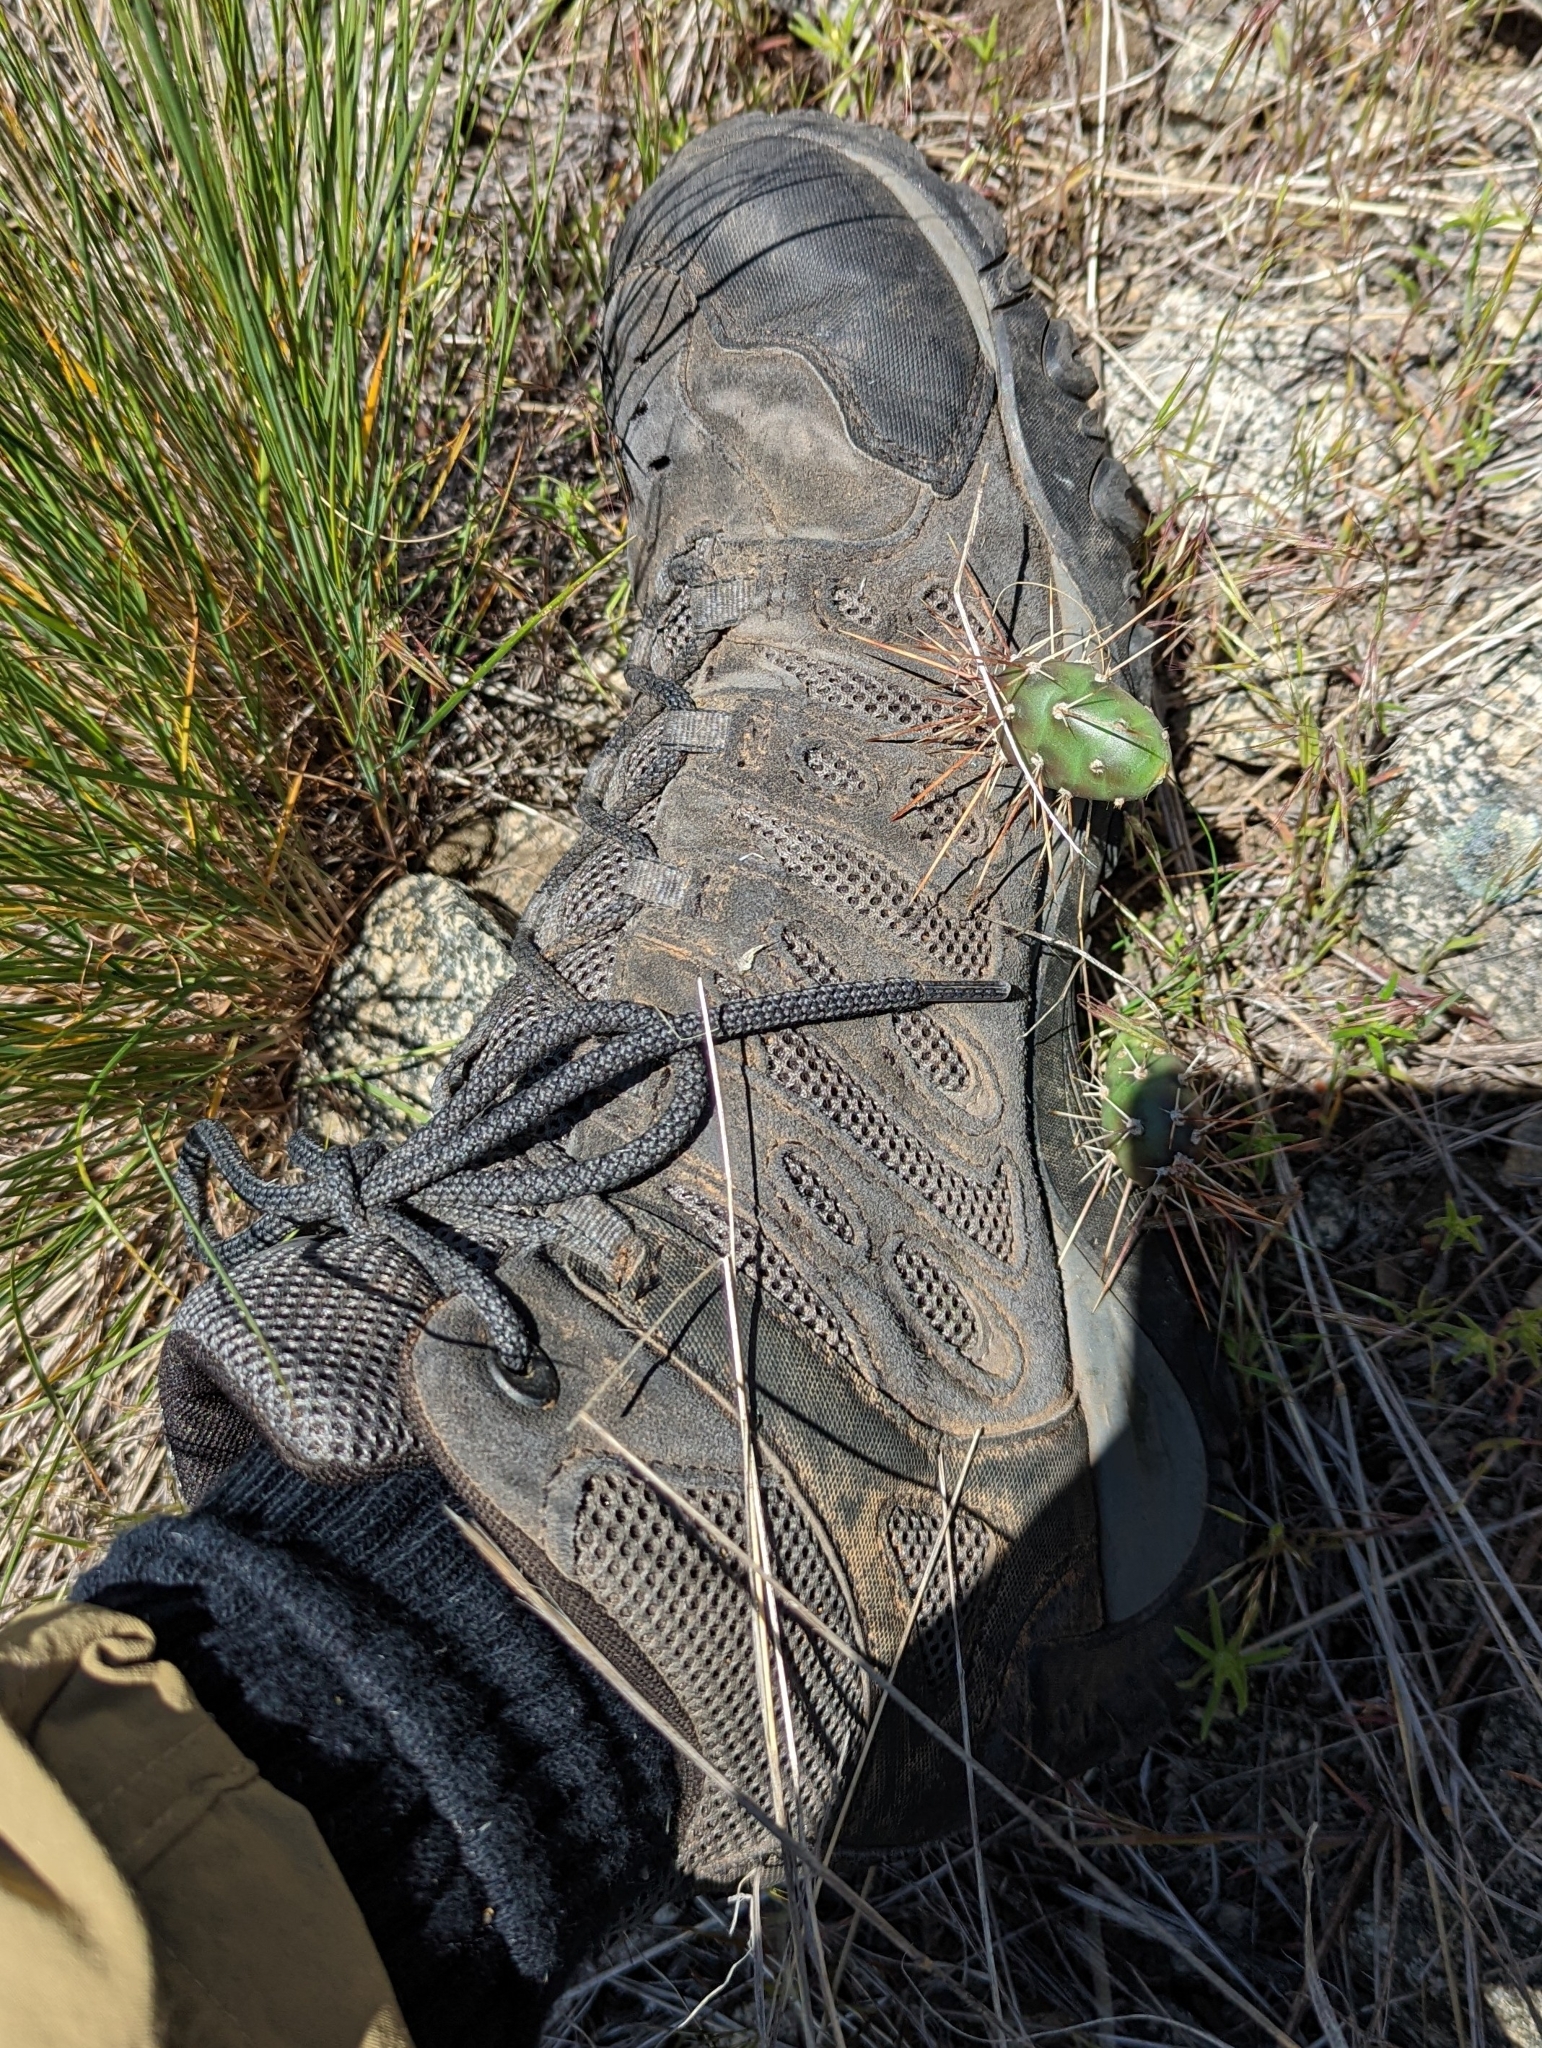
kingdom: Plantae
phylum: Tracheophyta
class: Magnoliopsida
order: Caryophyllales
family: Cactaceae
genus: Opuntia
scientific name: Opuntia fragilis
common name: Brittle cactus
